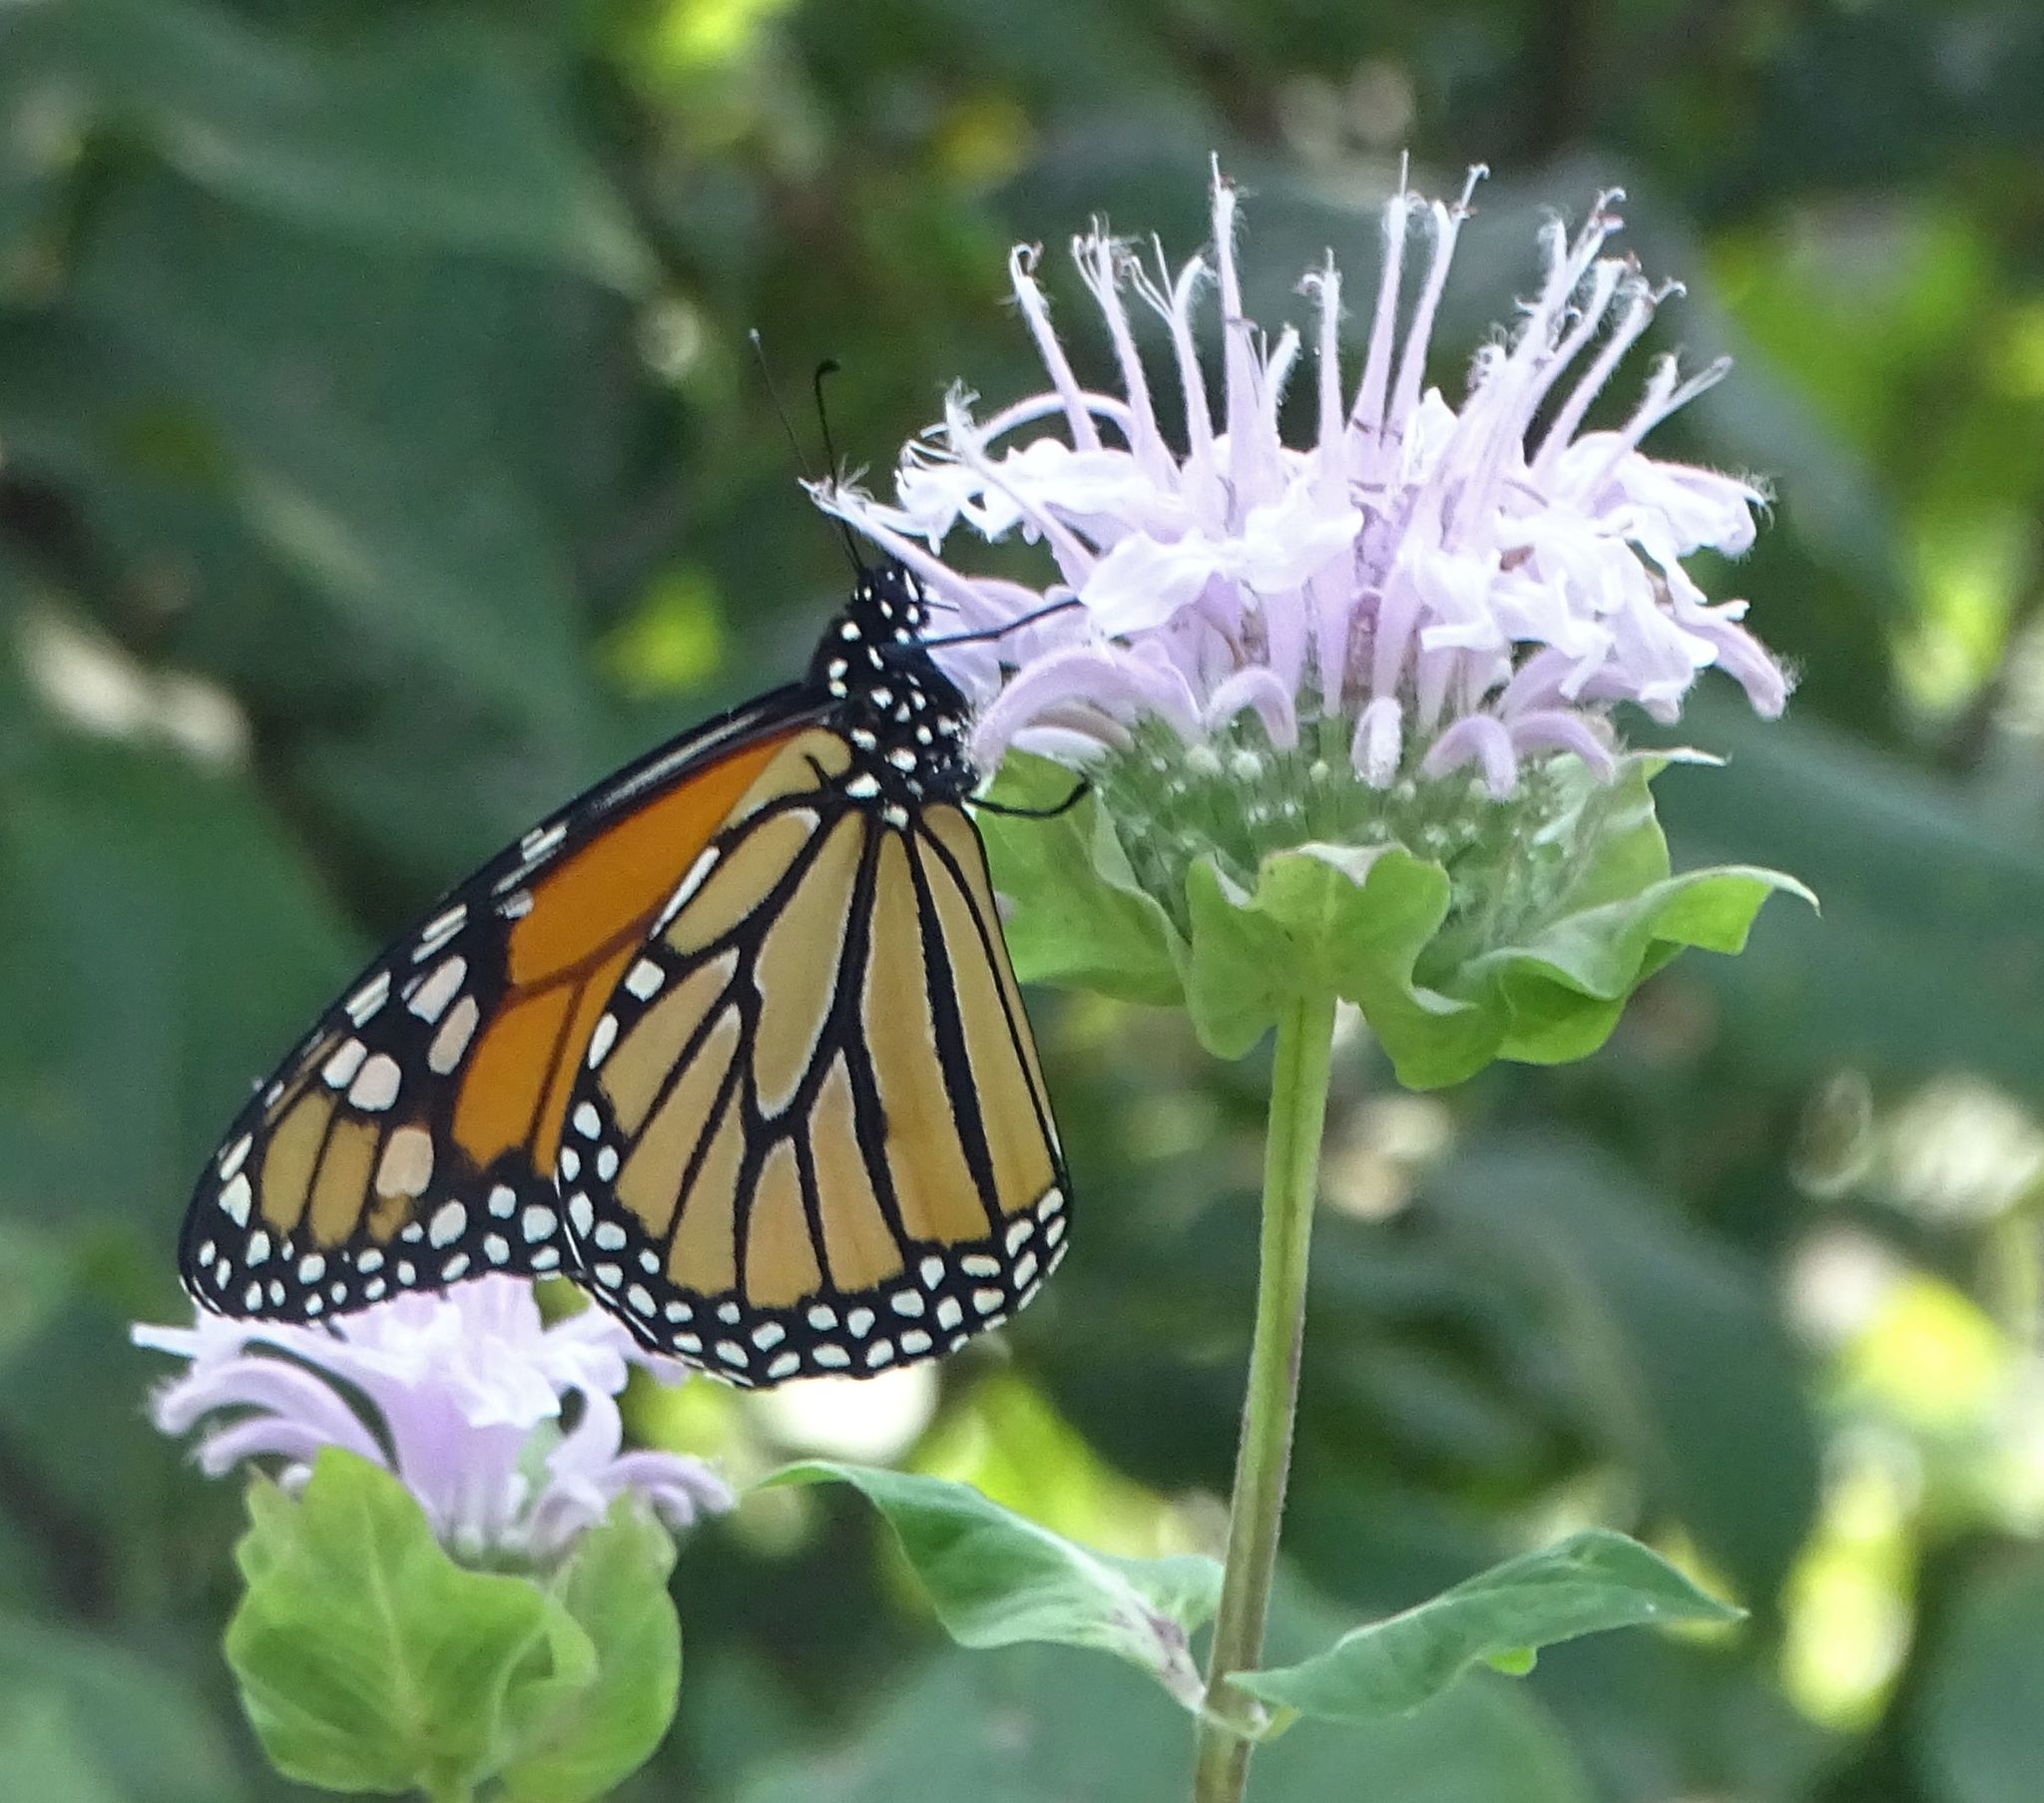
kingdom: Animalia
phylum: Arthropoda
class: Insecta
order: Lepidoptera
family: Nymphalidae
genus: Danaus
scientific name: Danaus plexippus
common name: Monarch
